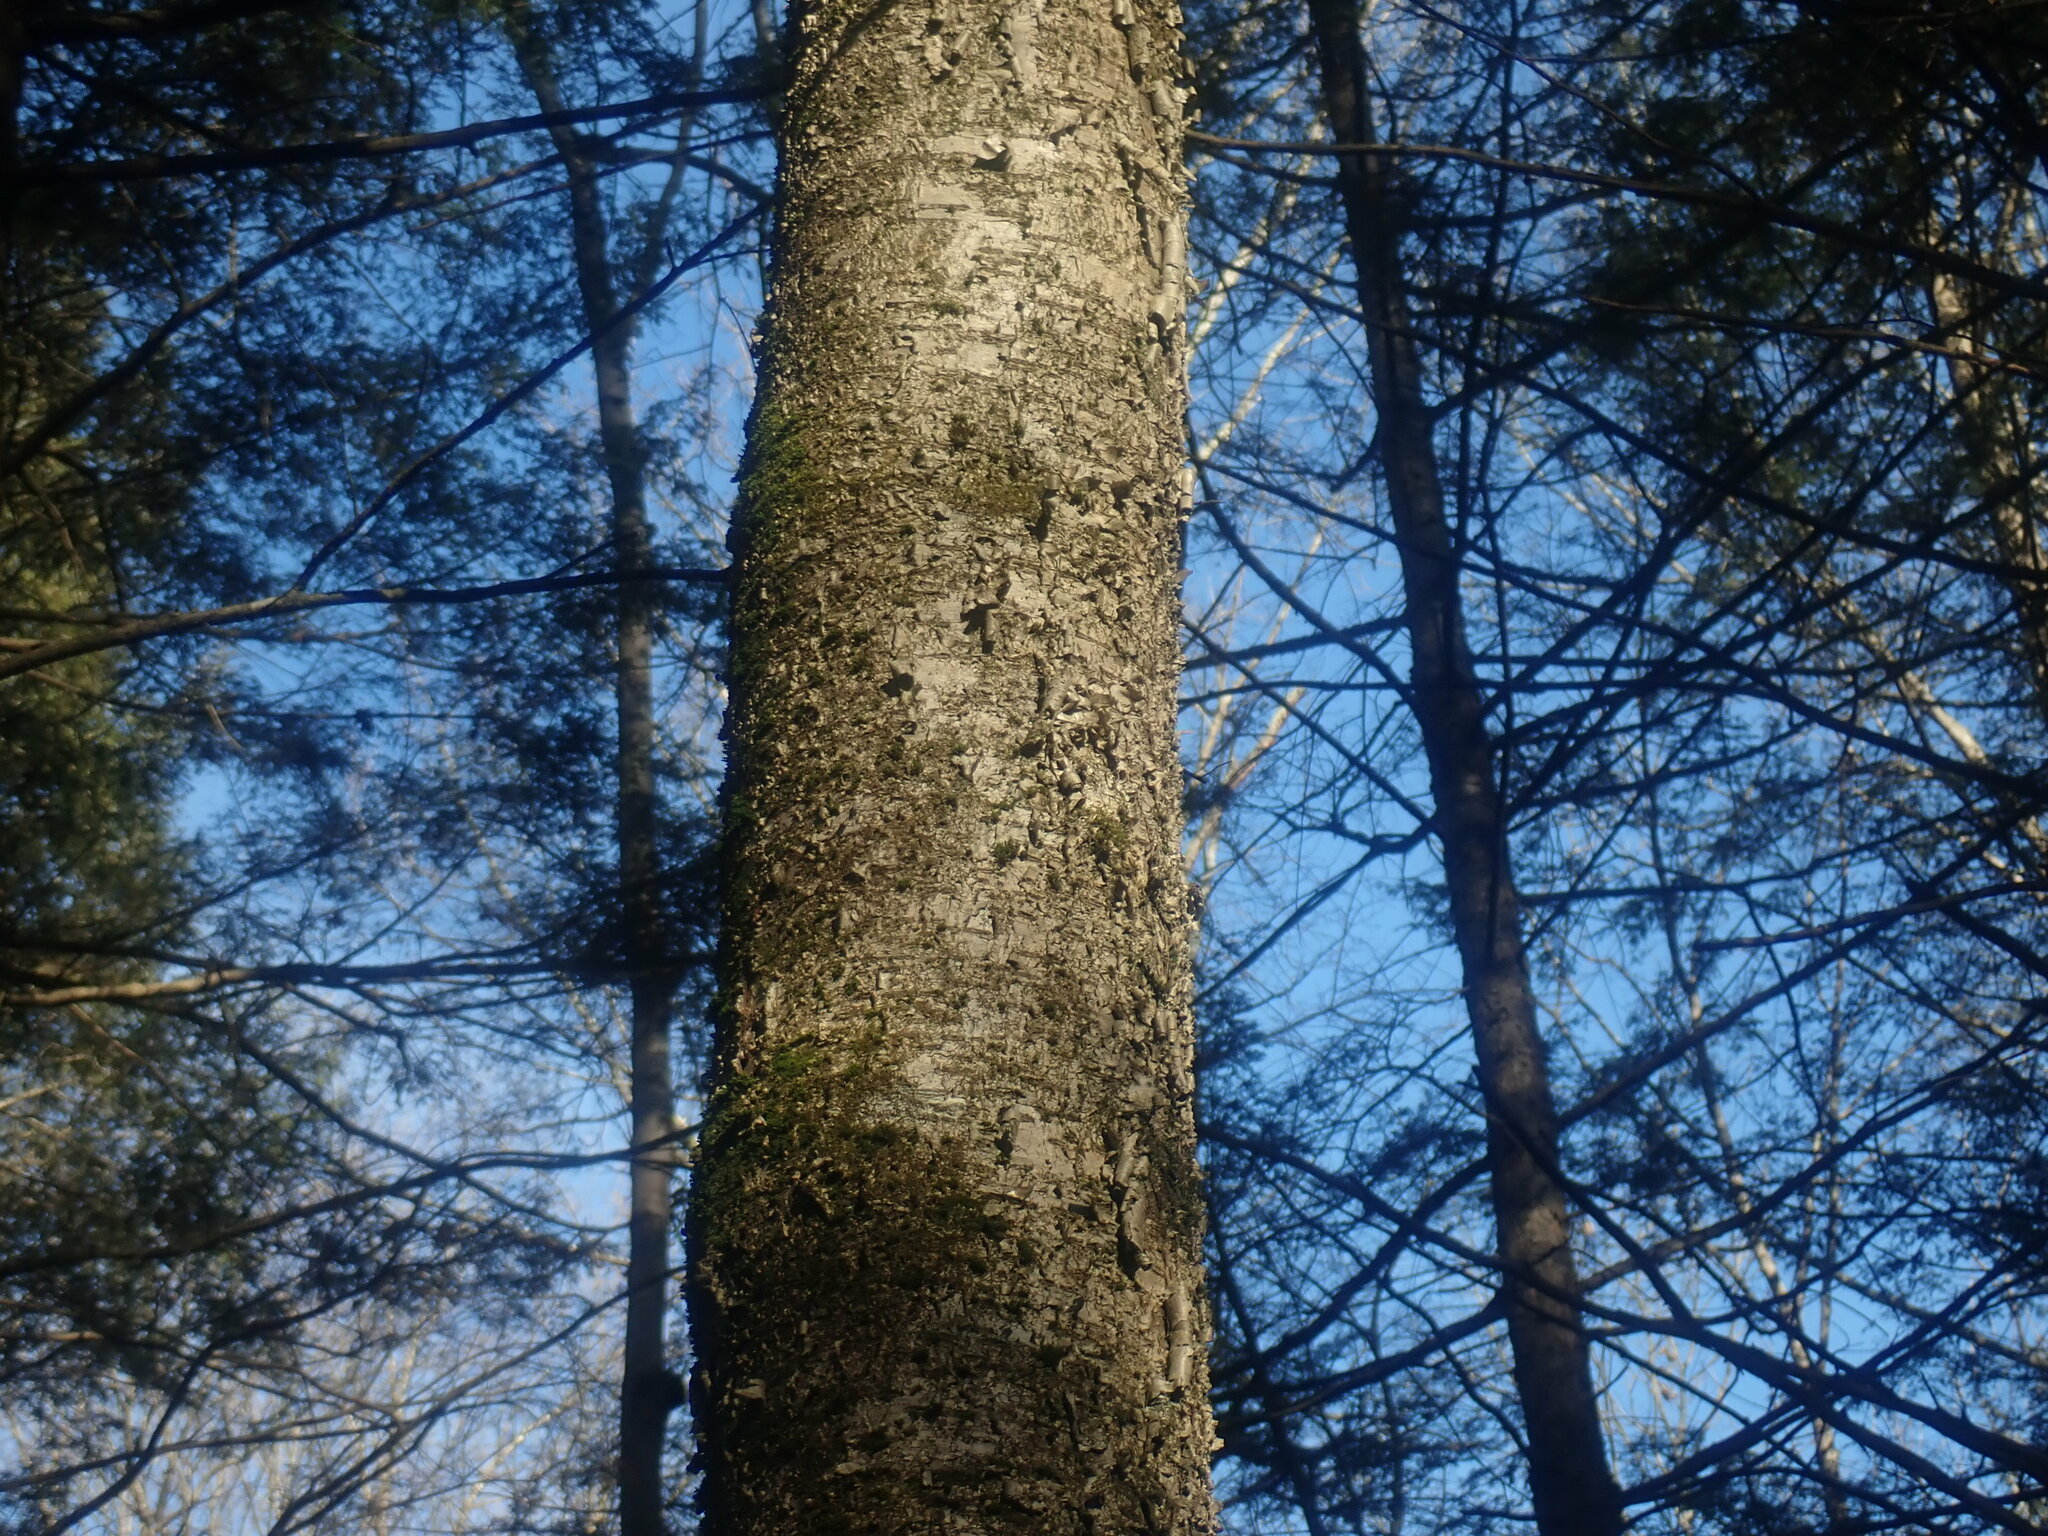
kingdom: Plantae
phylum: Tracheophyta
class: Magnoliopsida
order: Fagales
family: Betulaceae
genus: Betula
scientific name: Betula alleghaniensis
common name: Yellow birch
